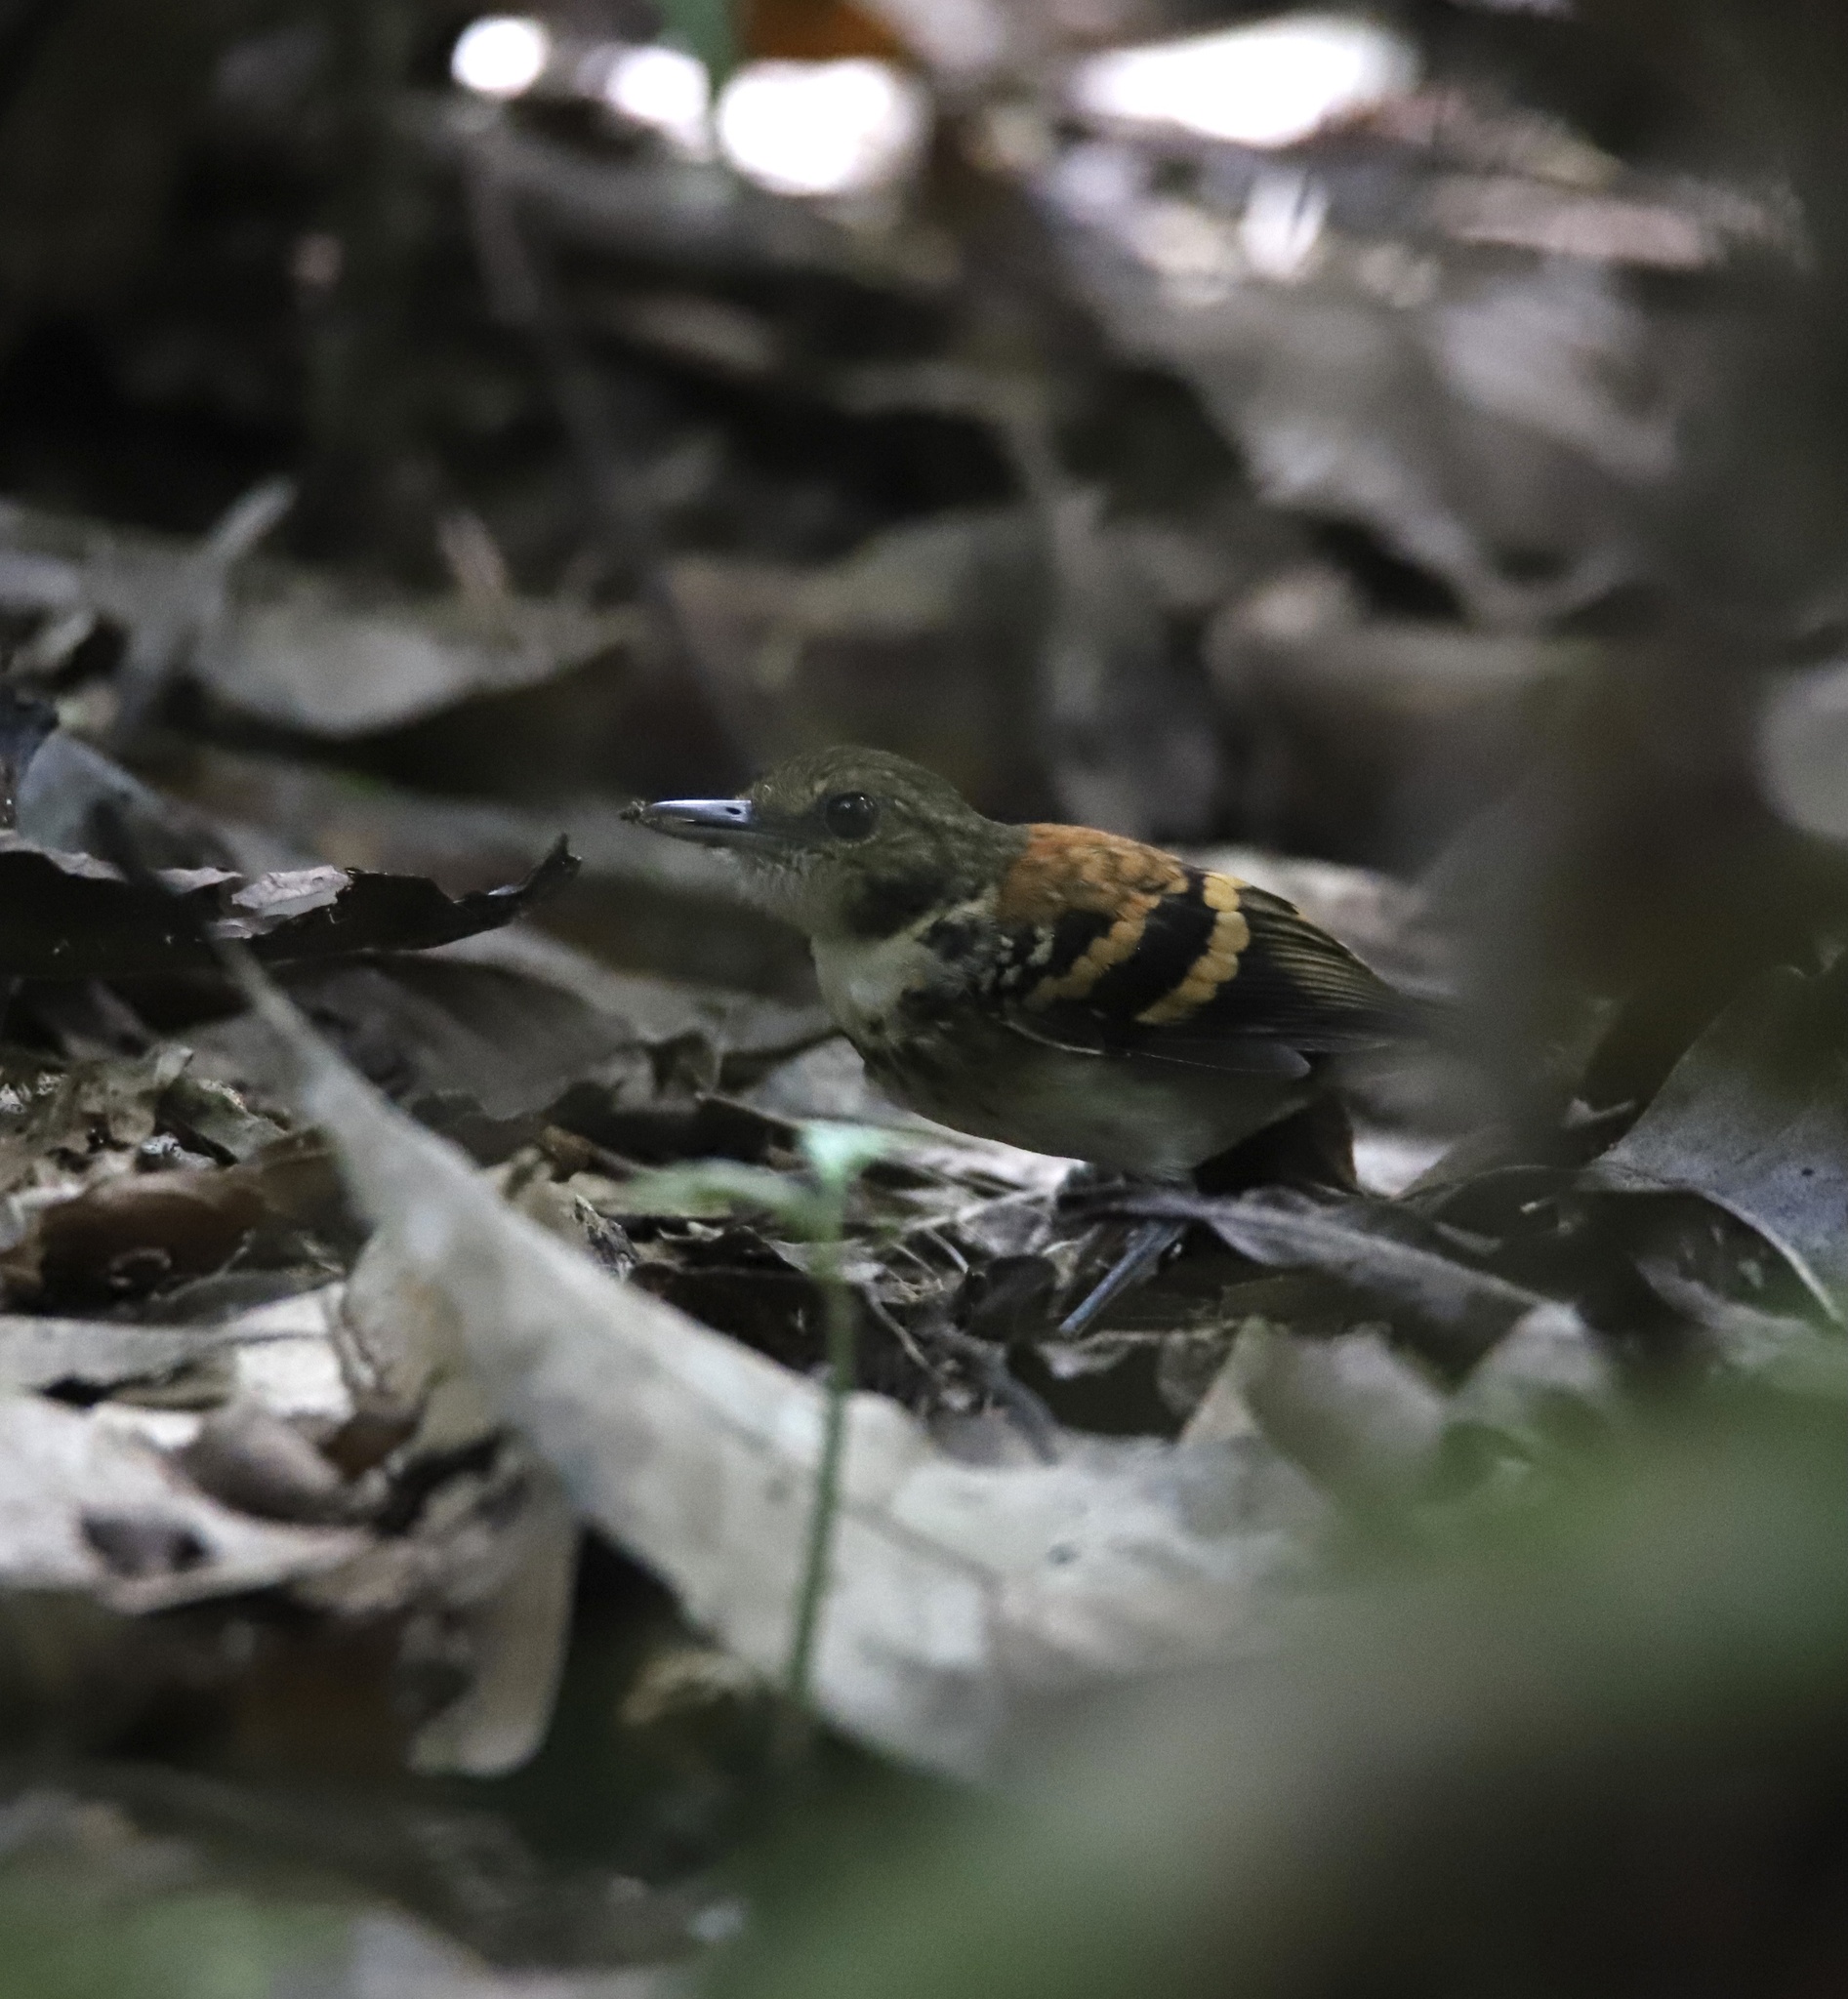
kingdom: Animalia
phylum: Chordata
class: Aves
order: Passeriformes
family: Thamnophilidae
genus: Hylophylax
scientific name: Hylophylax naevioides
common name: Spotted antbird
